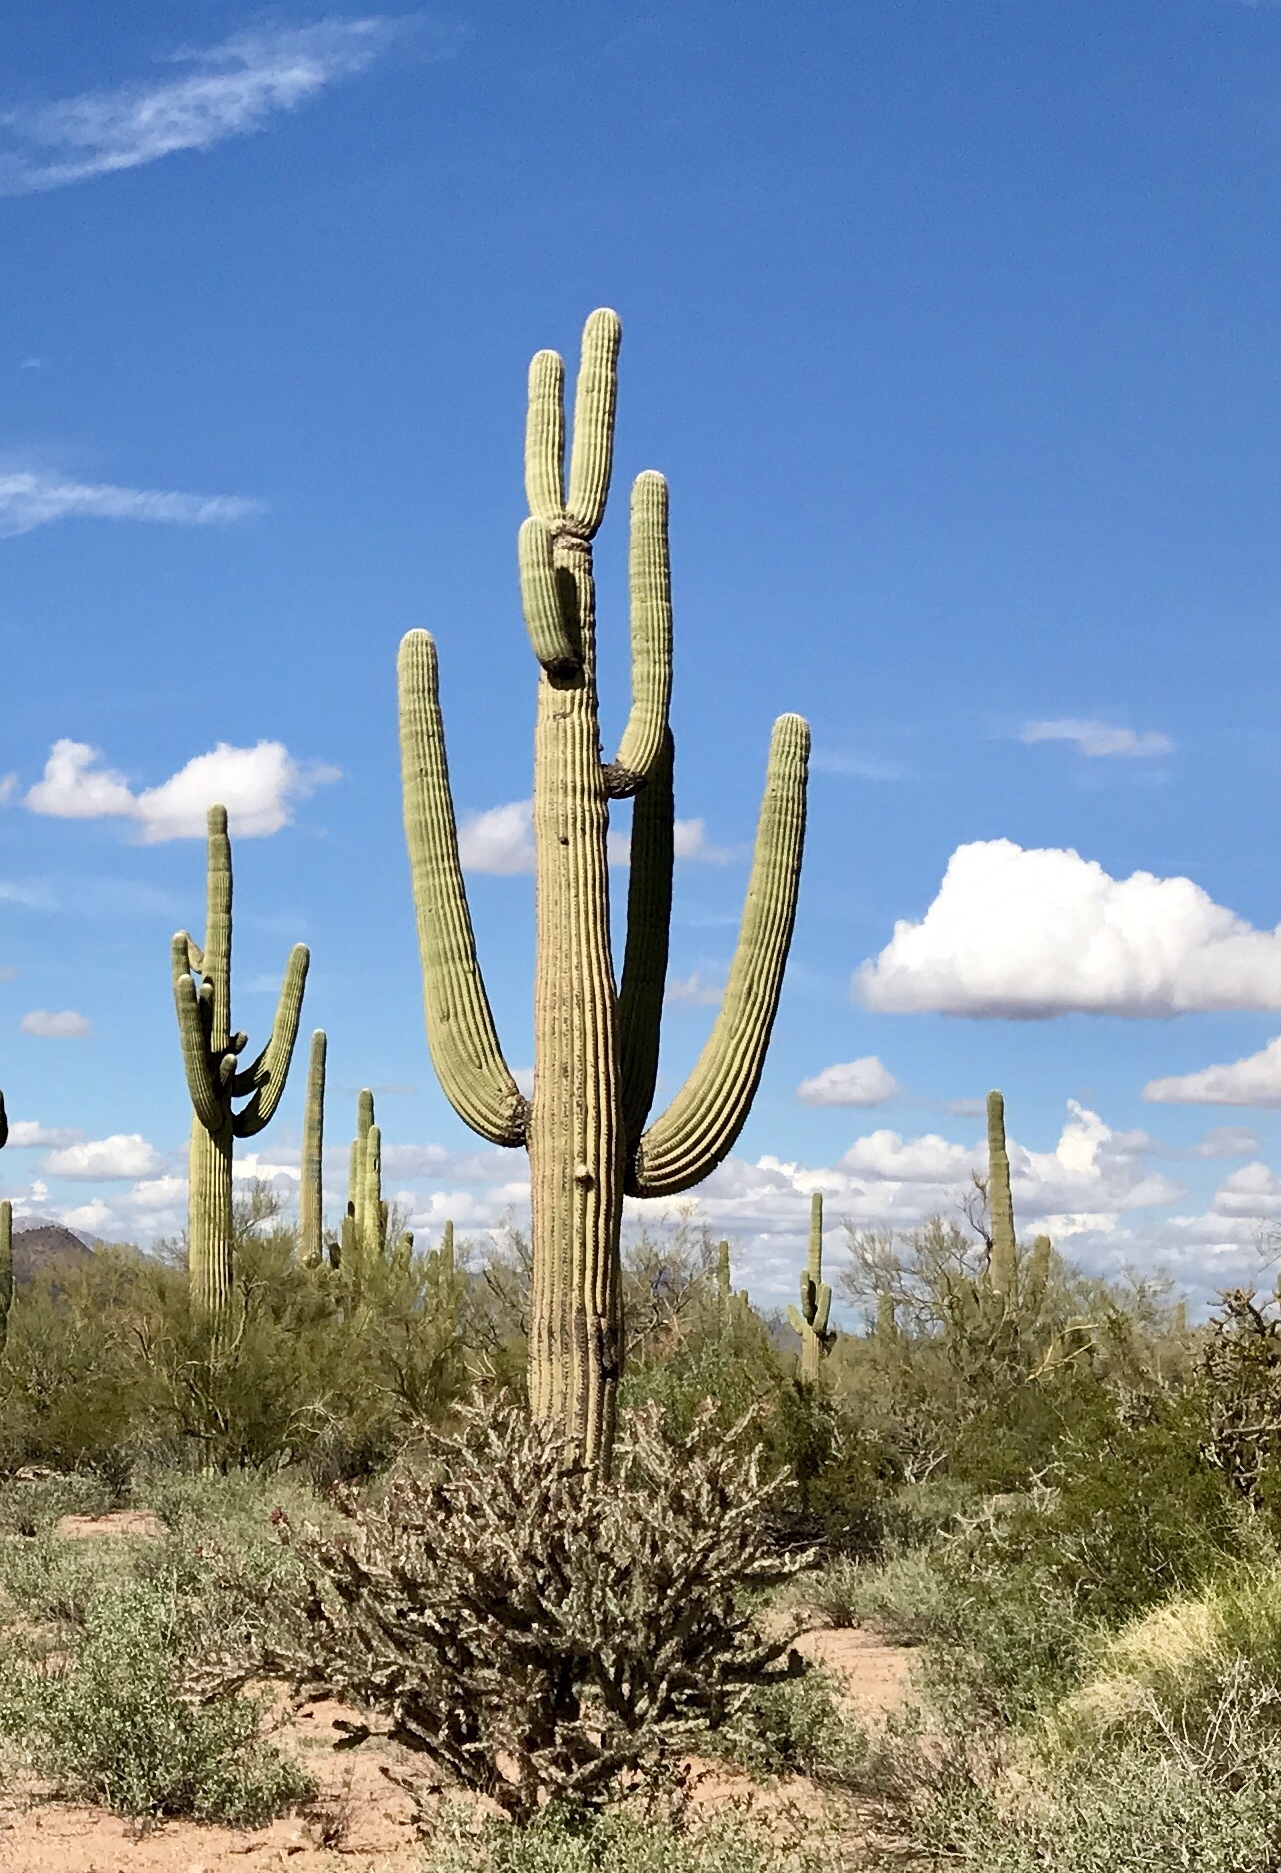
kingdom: Plantae
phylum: Tracheophyta
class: Magnoliopsida
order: Caryophyllales
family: Cactaceae
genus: Carnegiea
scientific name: Carnegiea gigantea
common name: Saguaro
